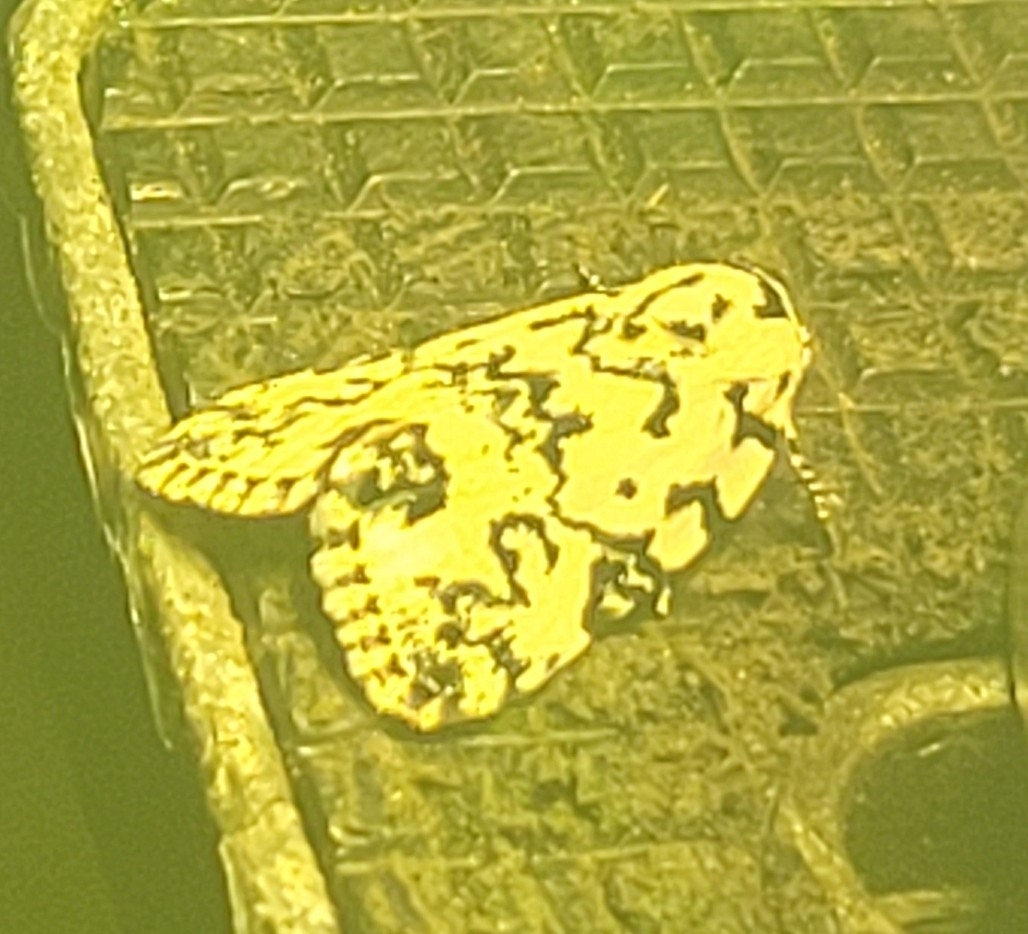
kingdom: Animalia
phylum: Arthropoda
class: Insecta
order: Lepidoptera
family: Noctuidae
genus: Polygrammate
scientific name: Polygrammate hebraeicum
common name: Hebrew moth
